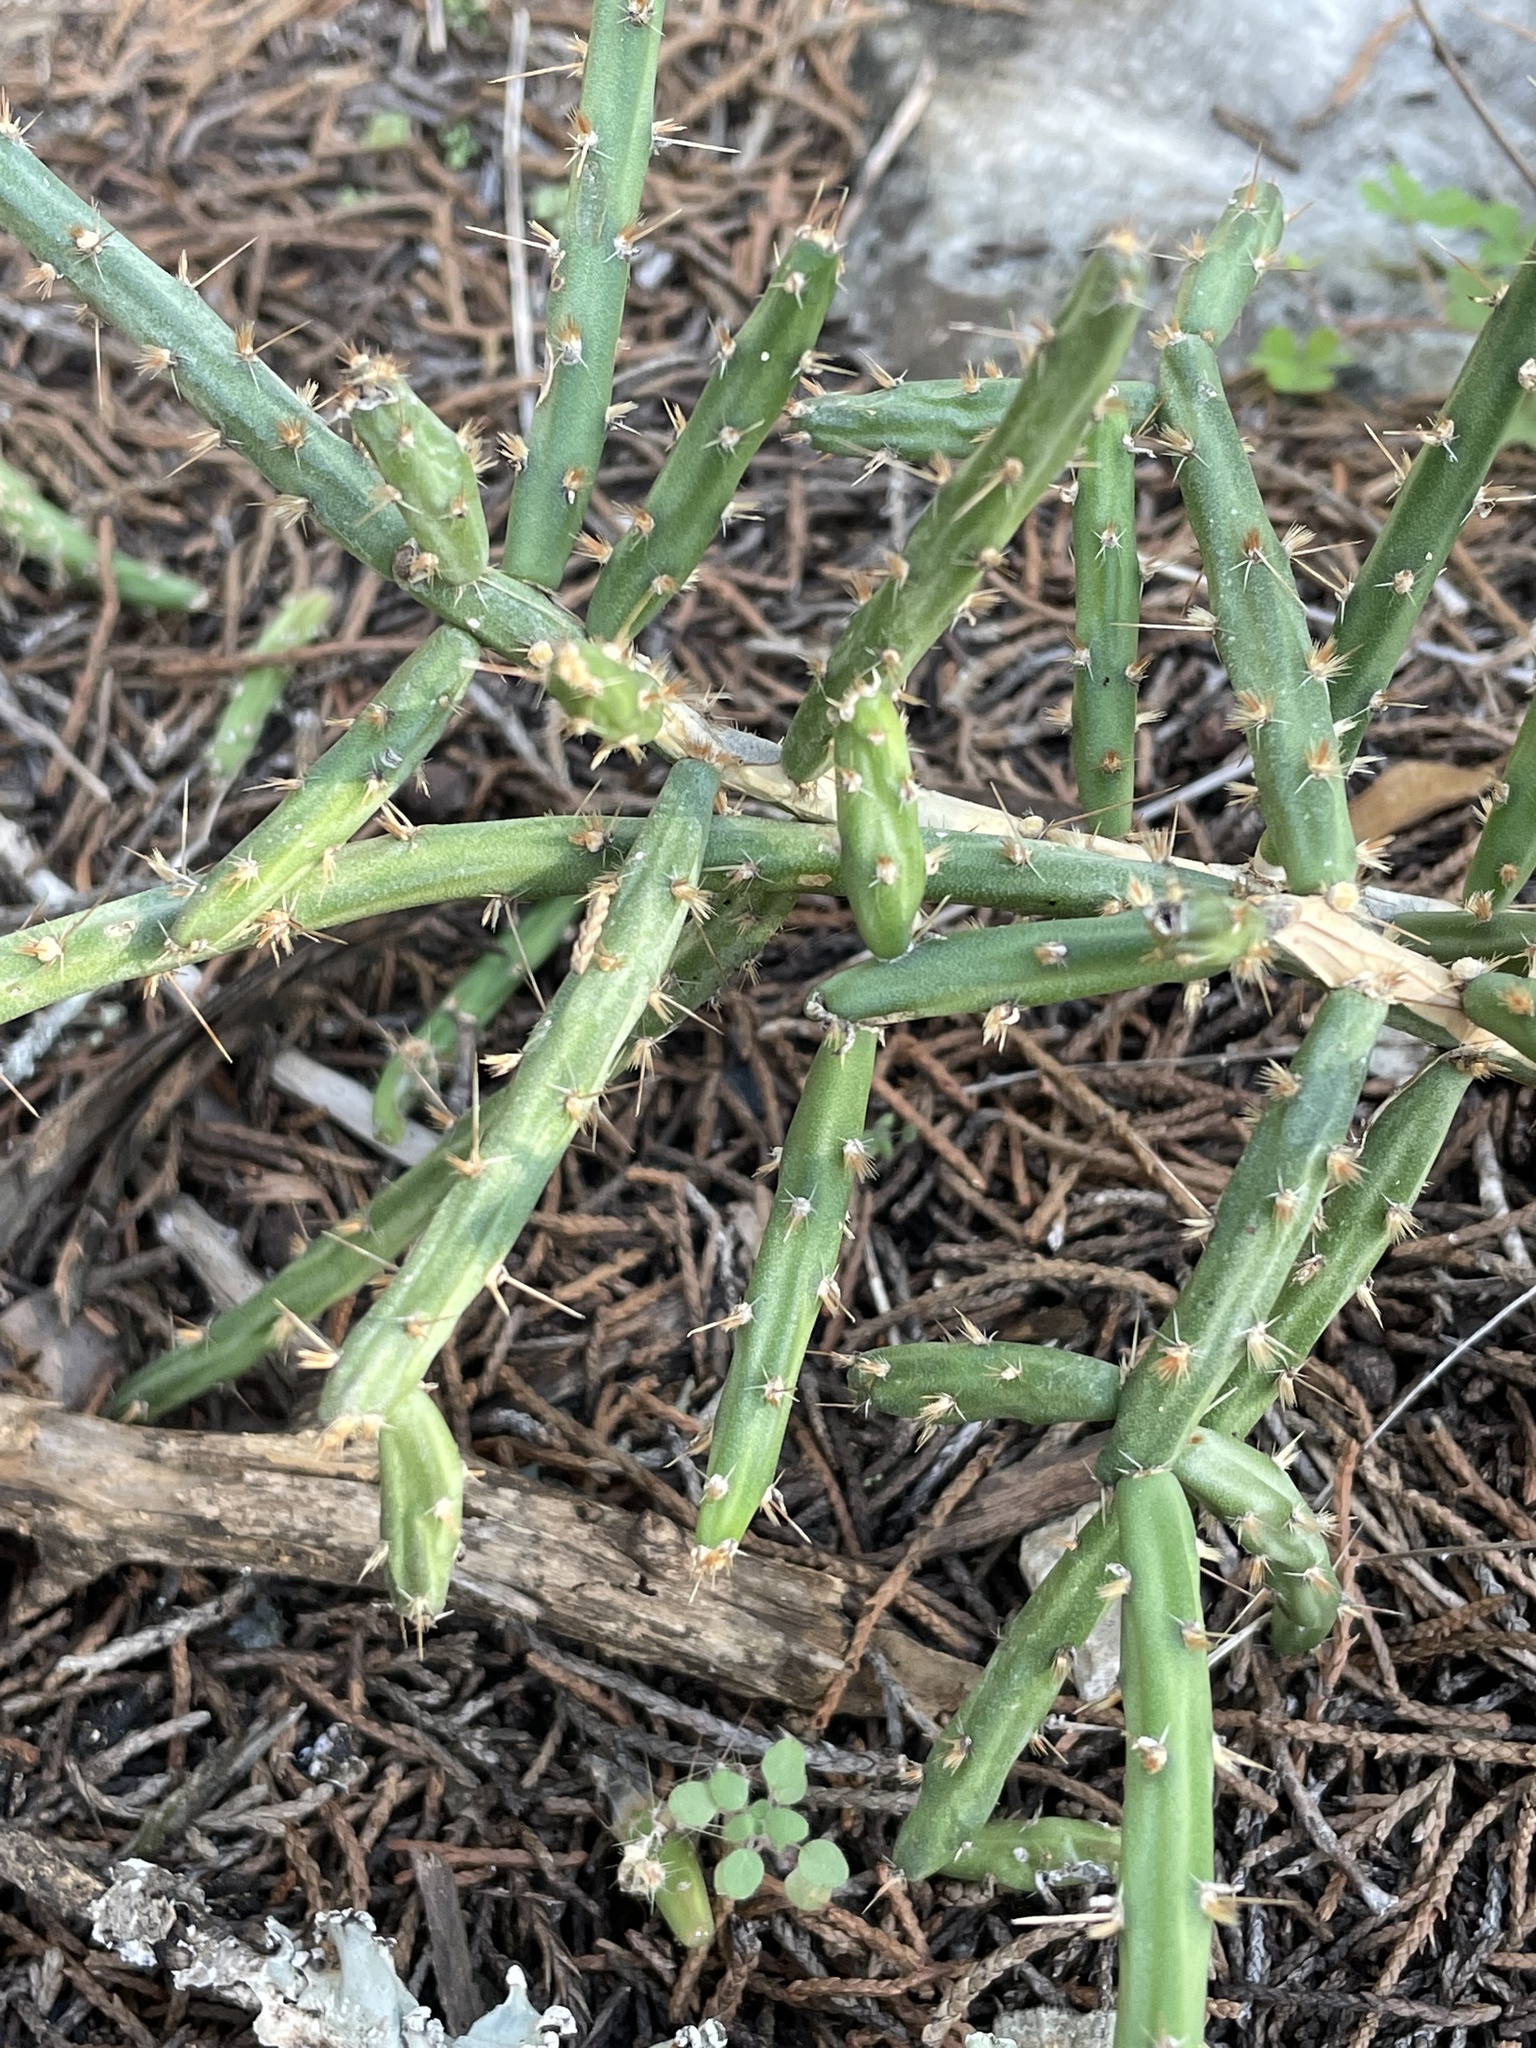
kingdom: Plantae
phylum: Tracheophyta
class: Magnoliopsida
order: Caryophyllales
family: Cactaceae
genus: Cylindropuntia
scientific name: Cylindropuntia leptocaulis
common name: Christmas cactus
